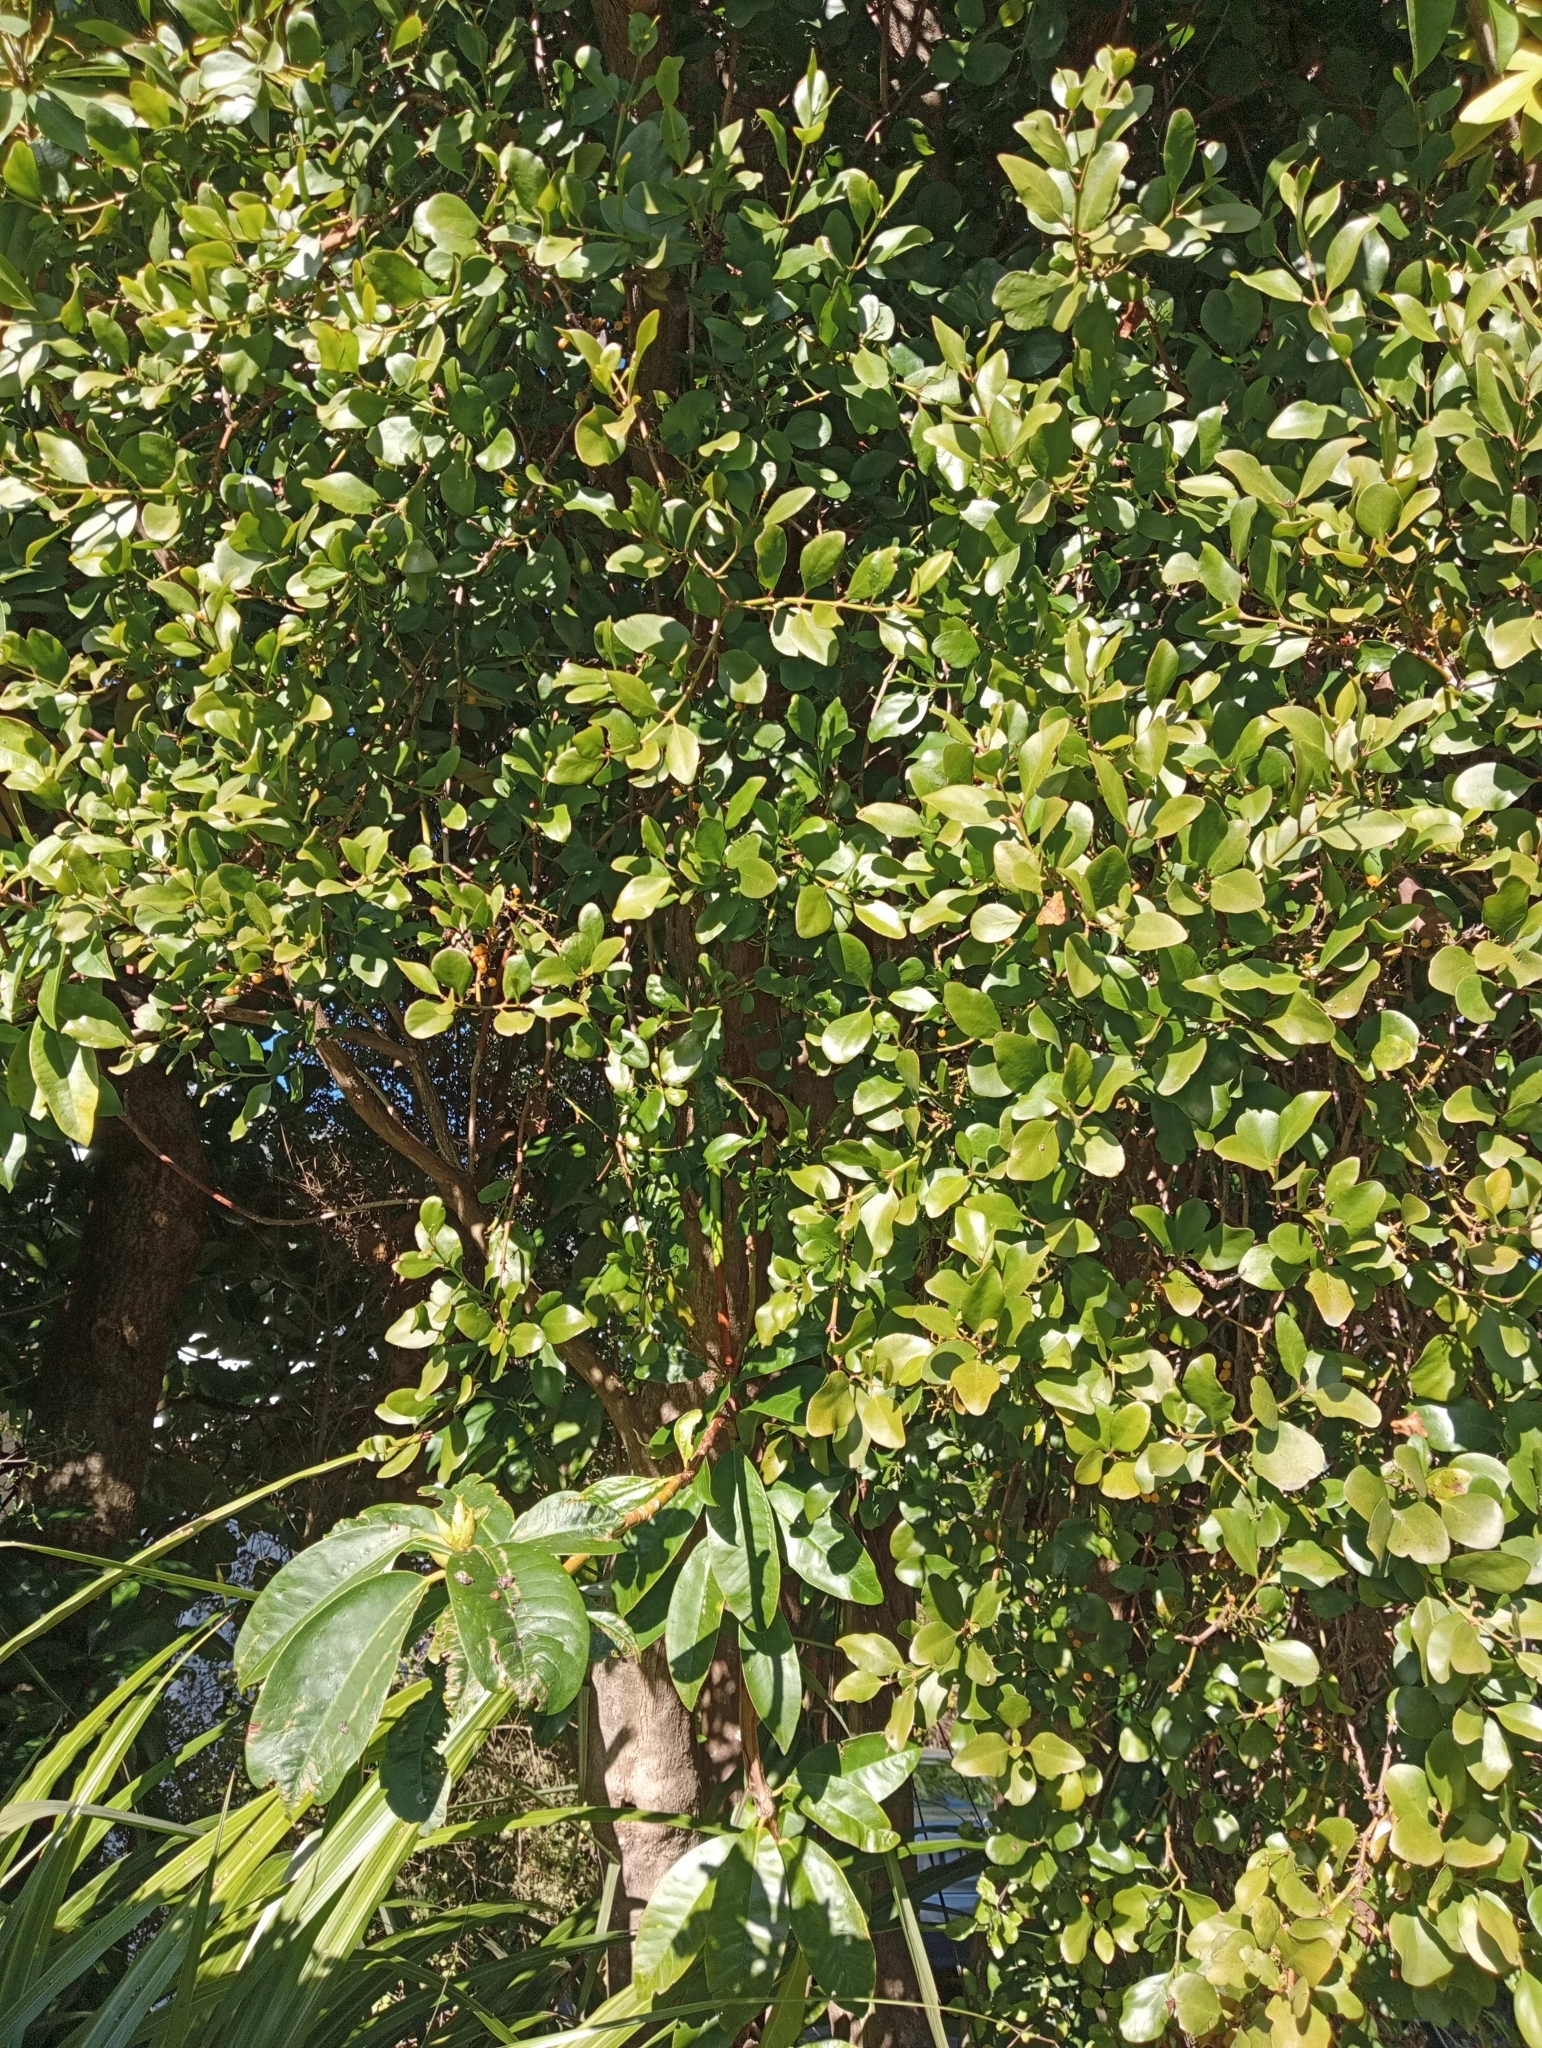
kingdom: Plantae
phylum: Tracheophyta
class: Magnoliopsida
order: Santalales
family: Loranthaceae
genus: Ileostylus
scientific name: Ileostylus micranthus
